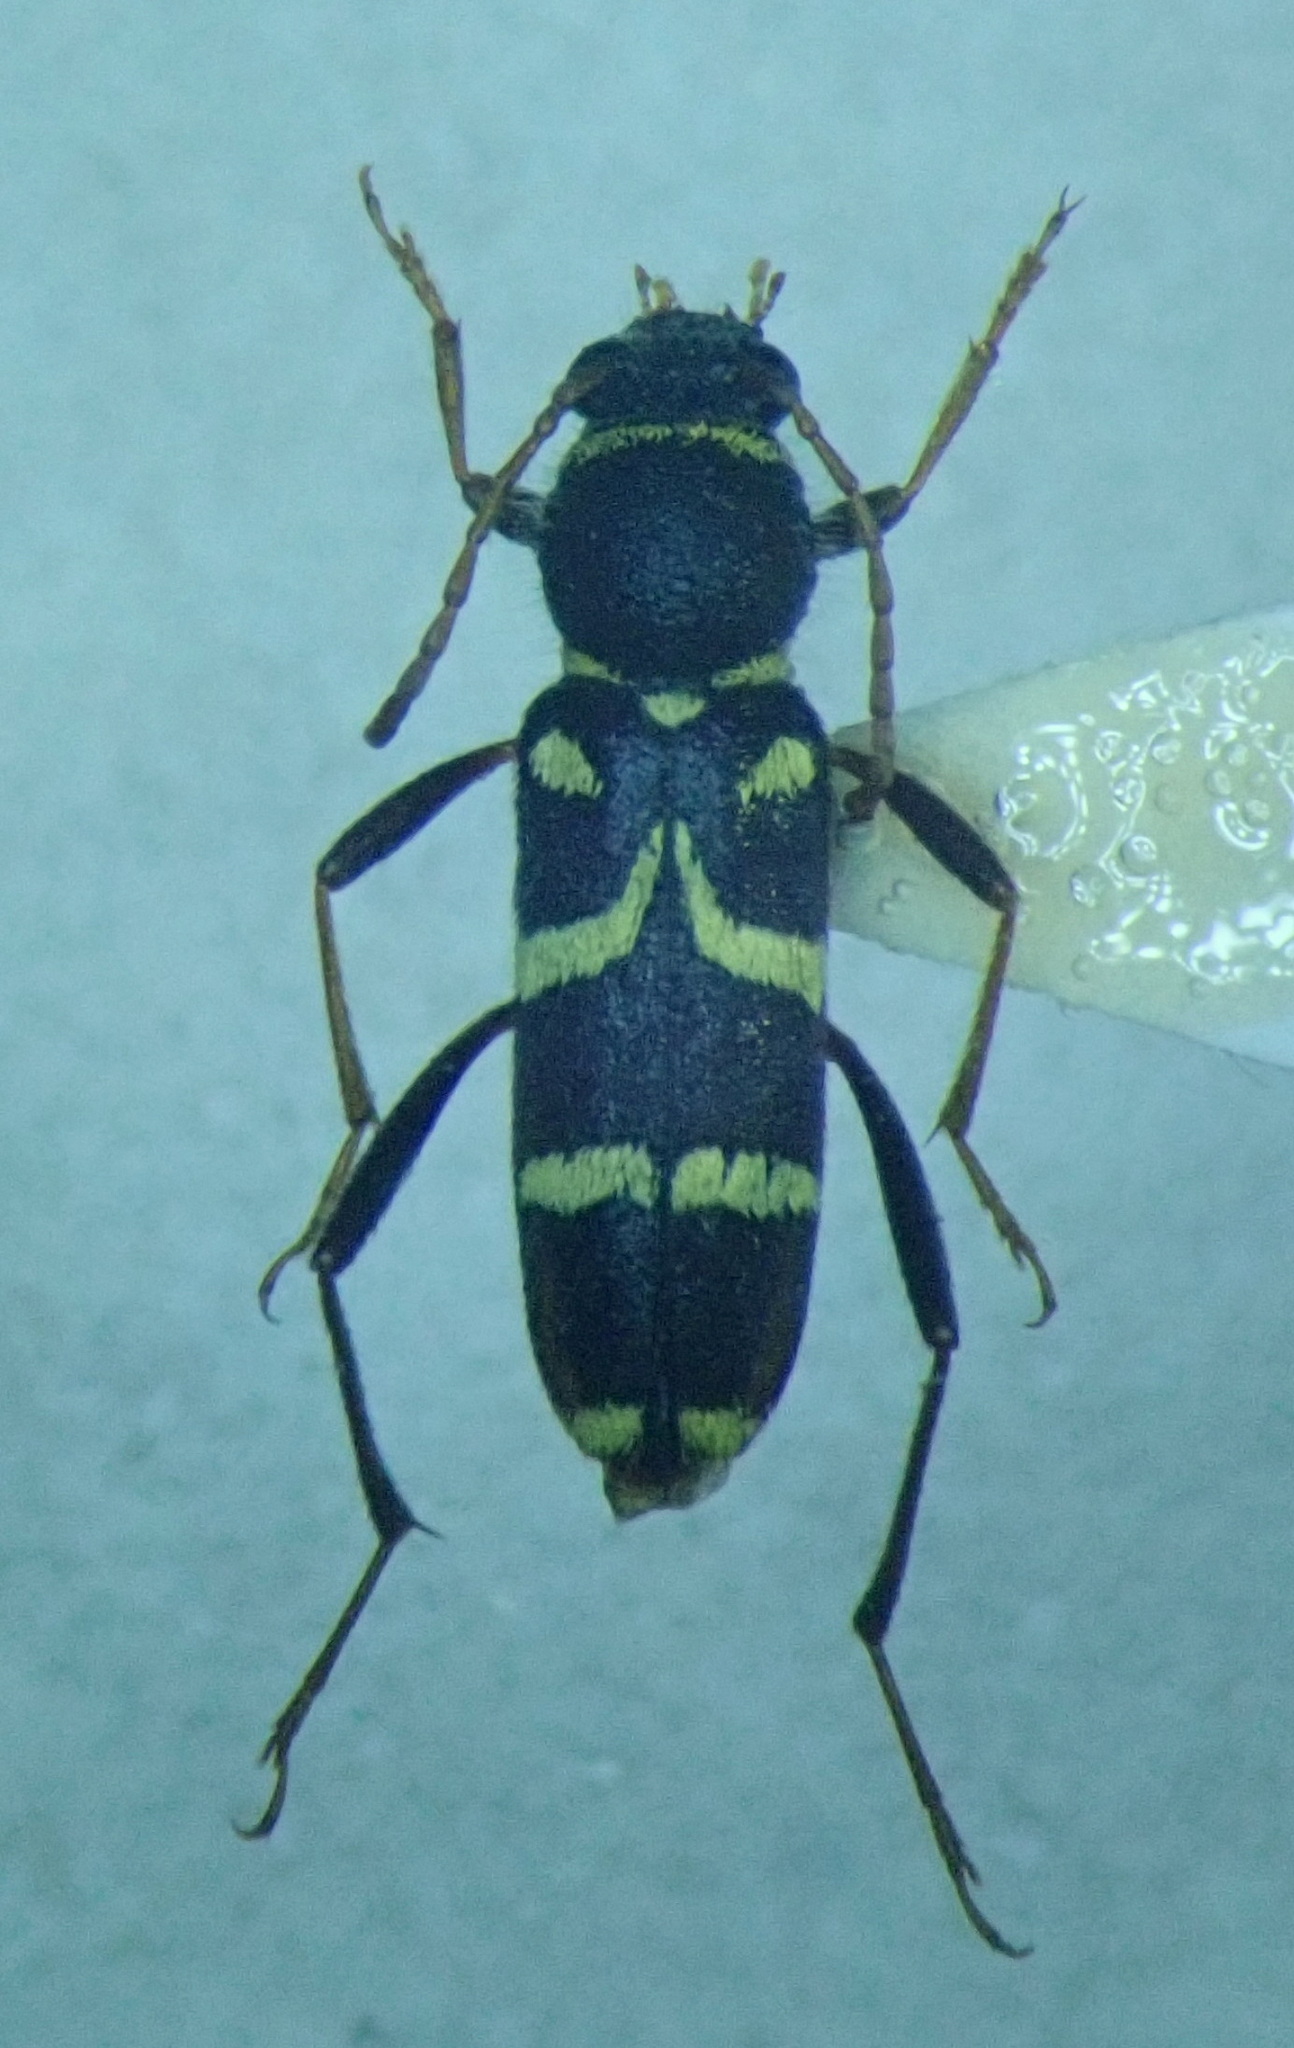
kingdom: Animalia
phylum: Arthropoda
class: Insecta
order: Coleoptera
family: Cerambycidae
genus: Clytus
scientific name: Clytus rhamni
